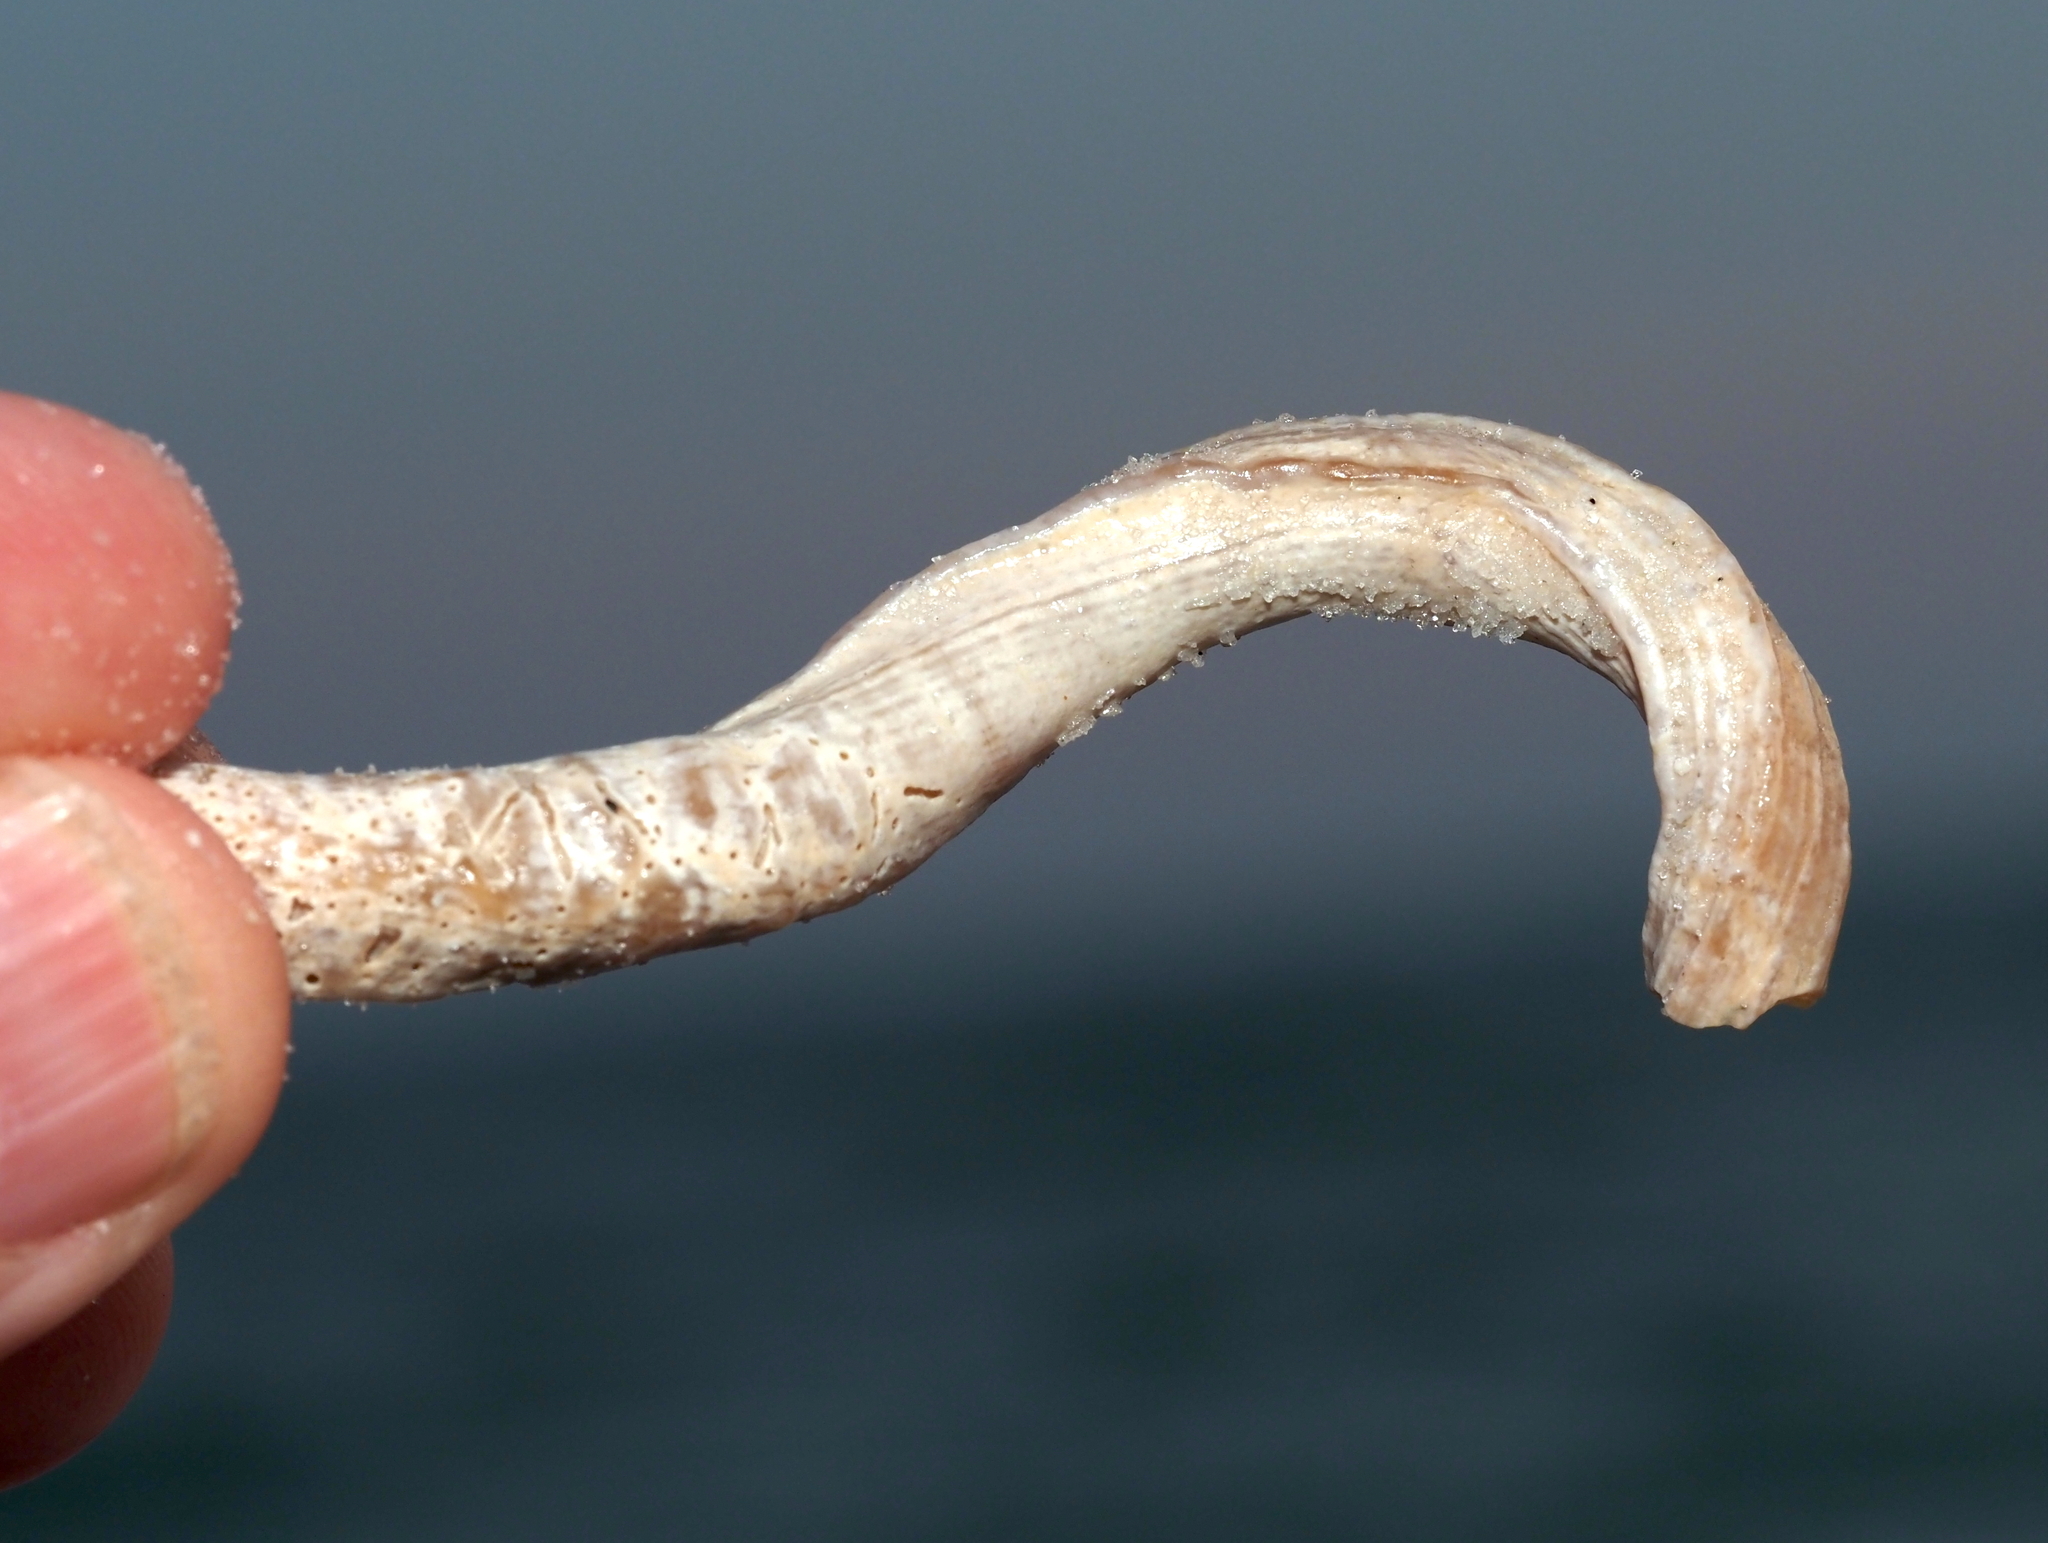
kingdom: Animalia
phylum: Mollusca
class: Gastropoda
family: Turritellidae
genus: Vermicularia
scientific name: Vermicularia fargoi
